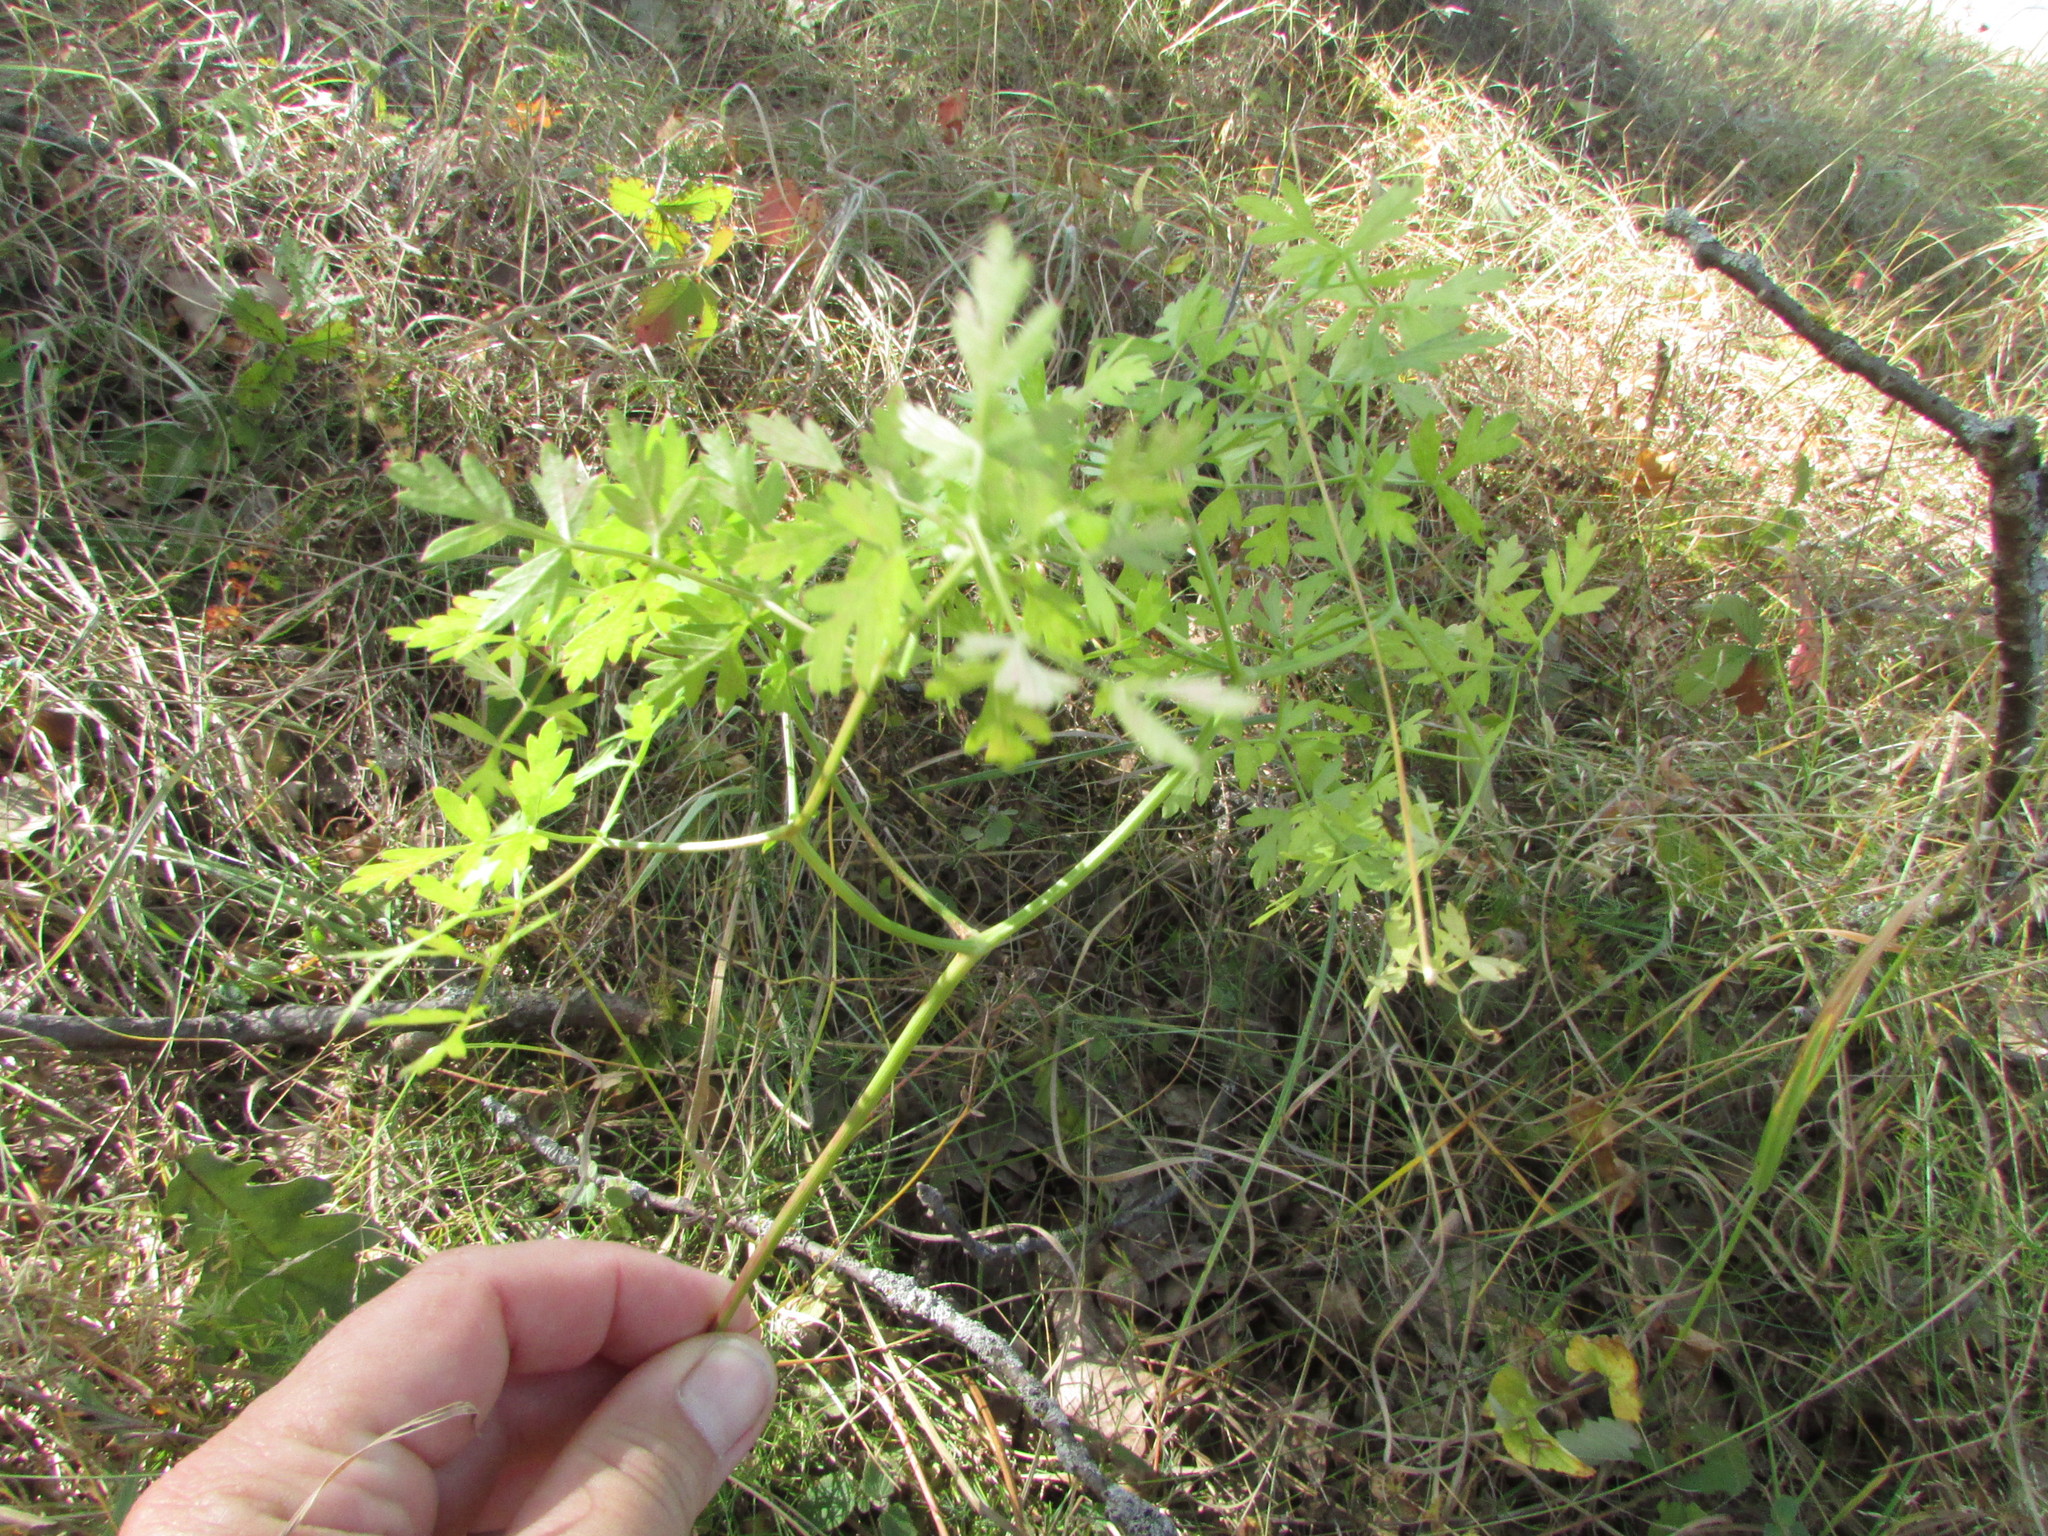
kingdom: Plantae
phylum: Tracheophyta
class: Magnoliopsida
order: Apiales
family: Apiaceae
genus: Oreoselinum
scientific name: Oreoselinum nigrum
